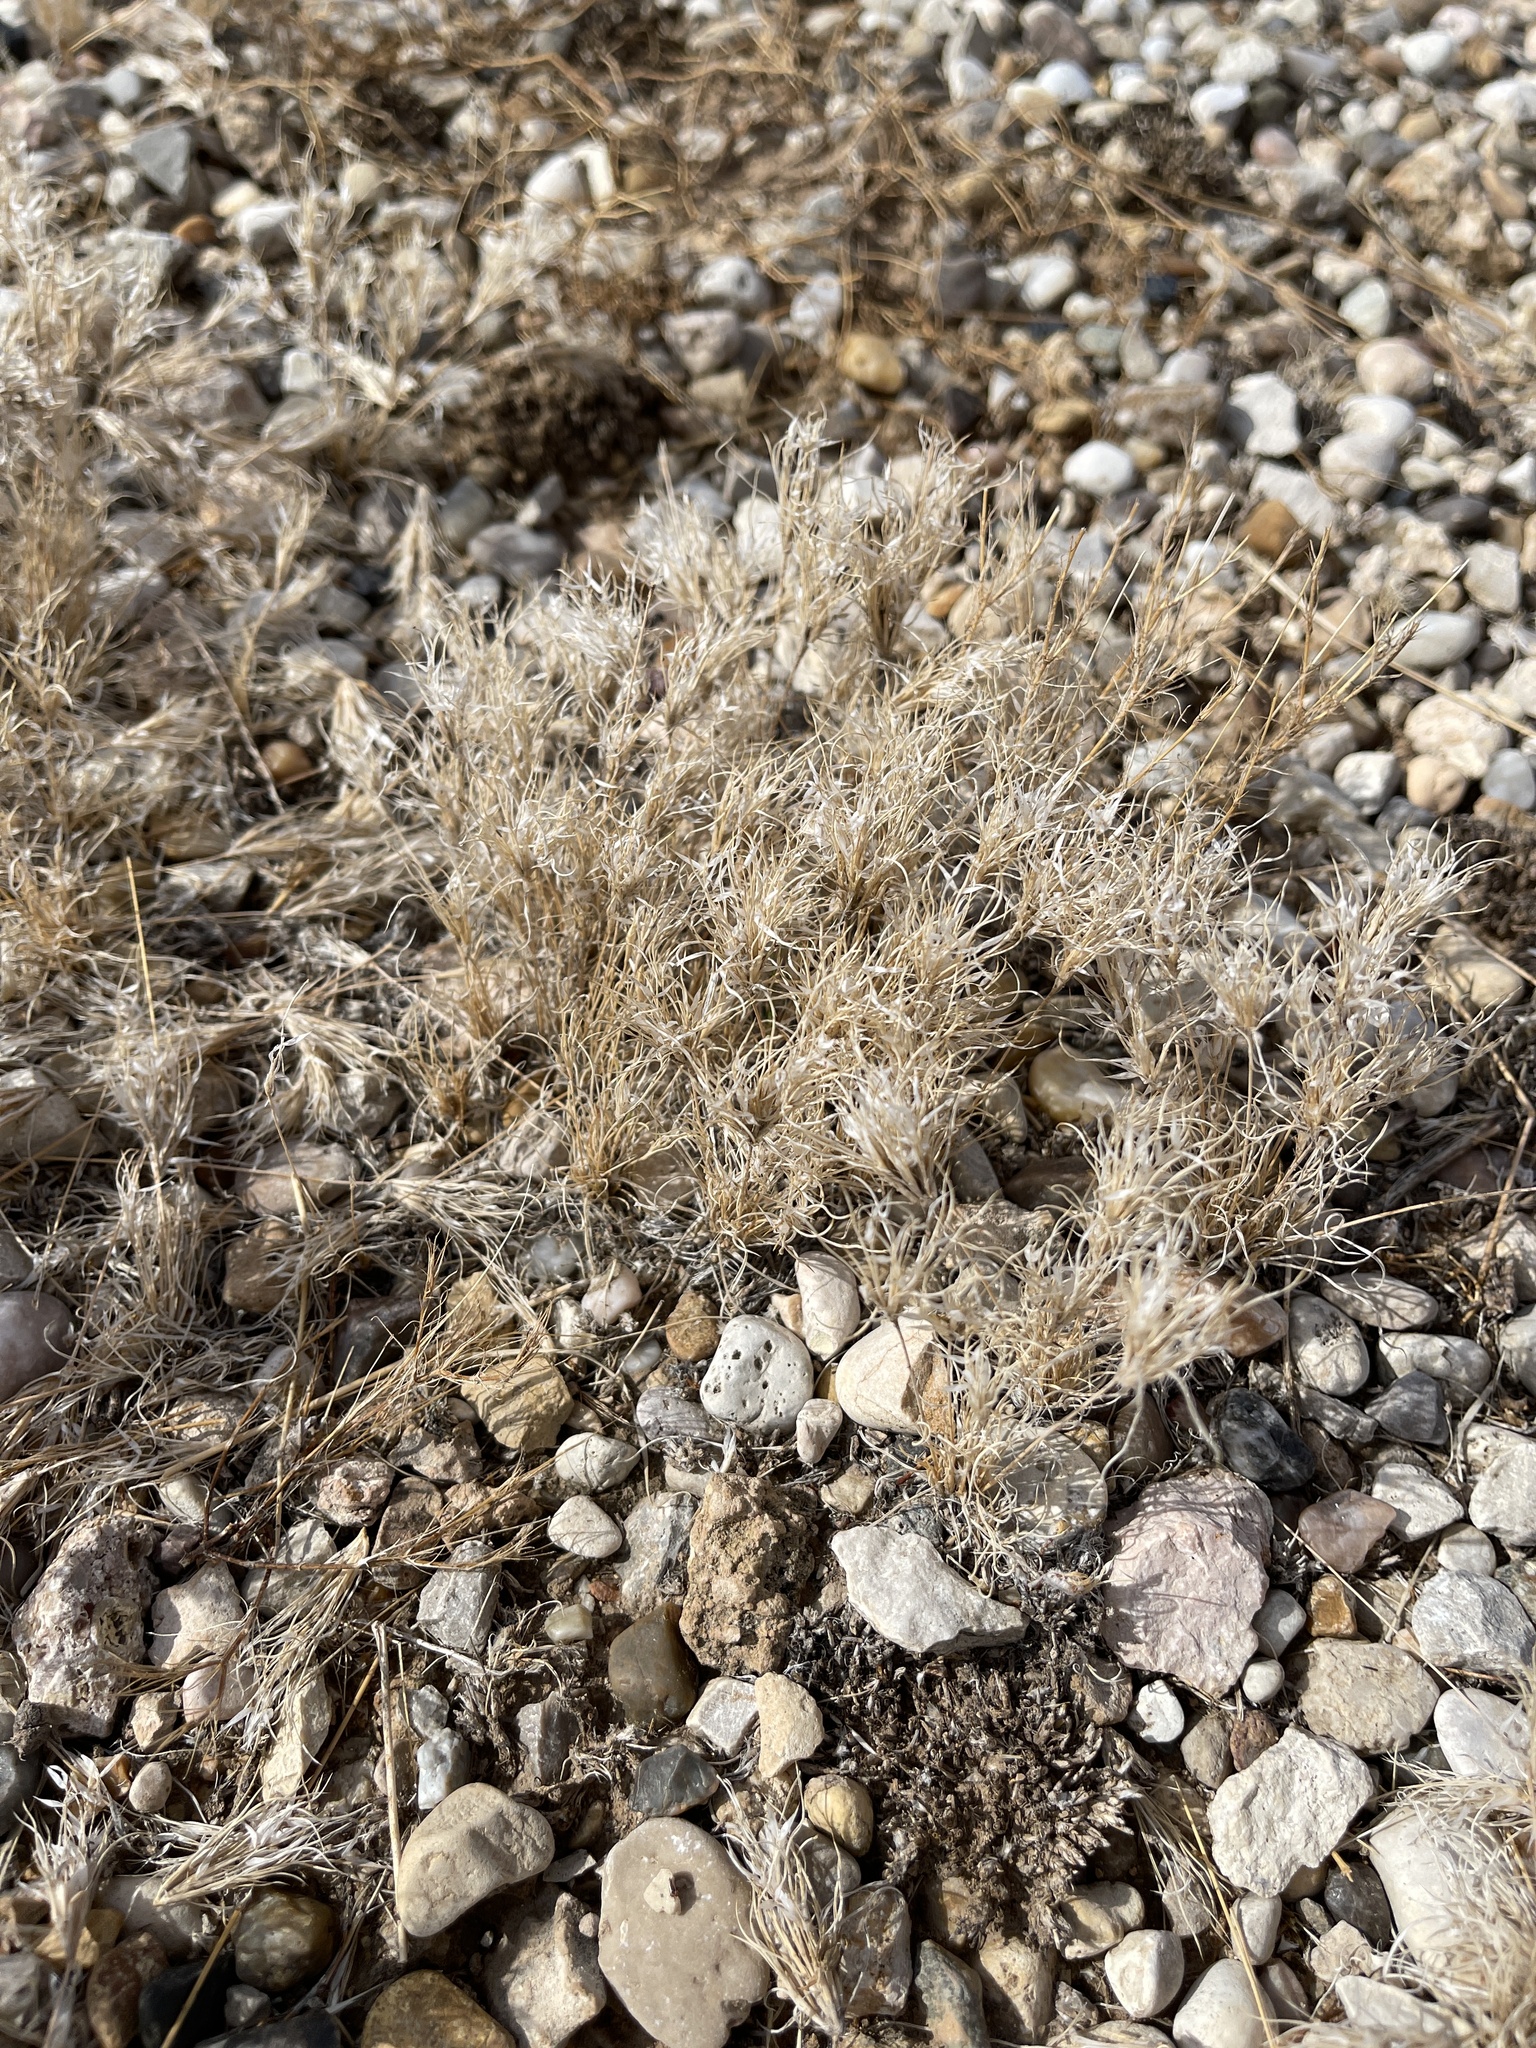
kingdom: Plantae
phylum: Tracheophyta
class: Liliopsida
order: Poales
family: Poaceae
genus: Dasyochloa
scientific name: Dasyochloa pulchella
